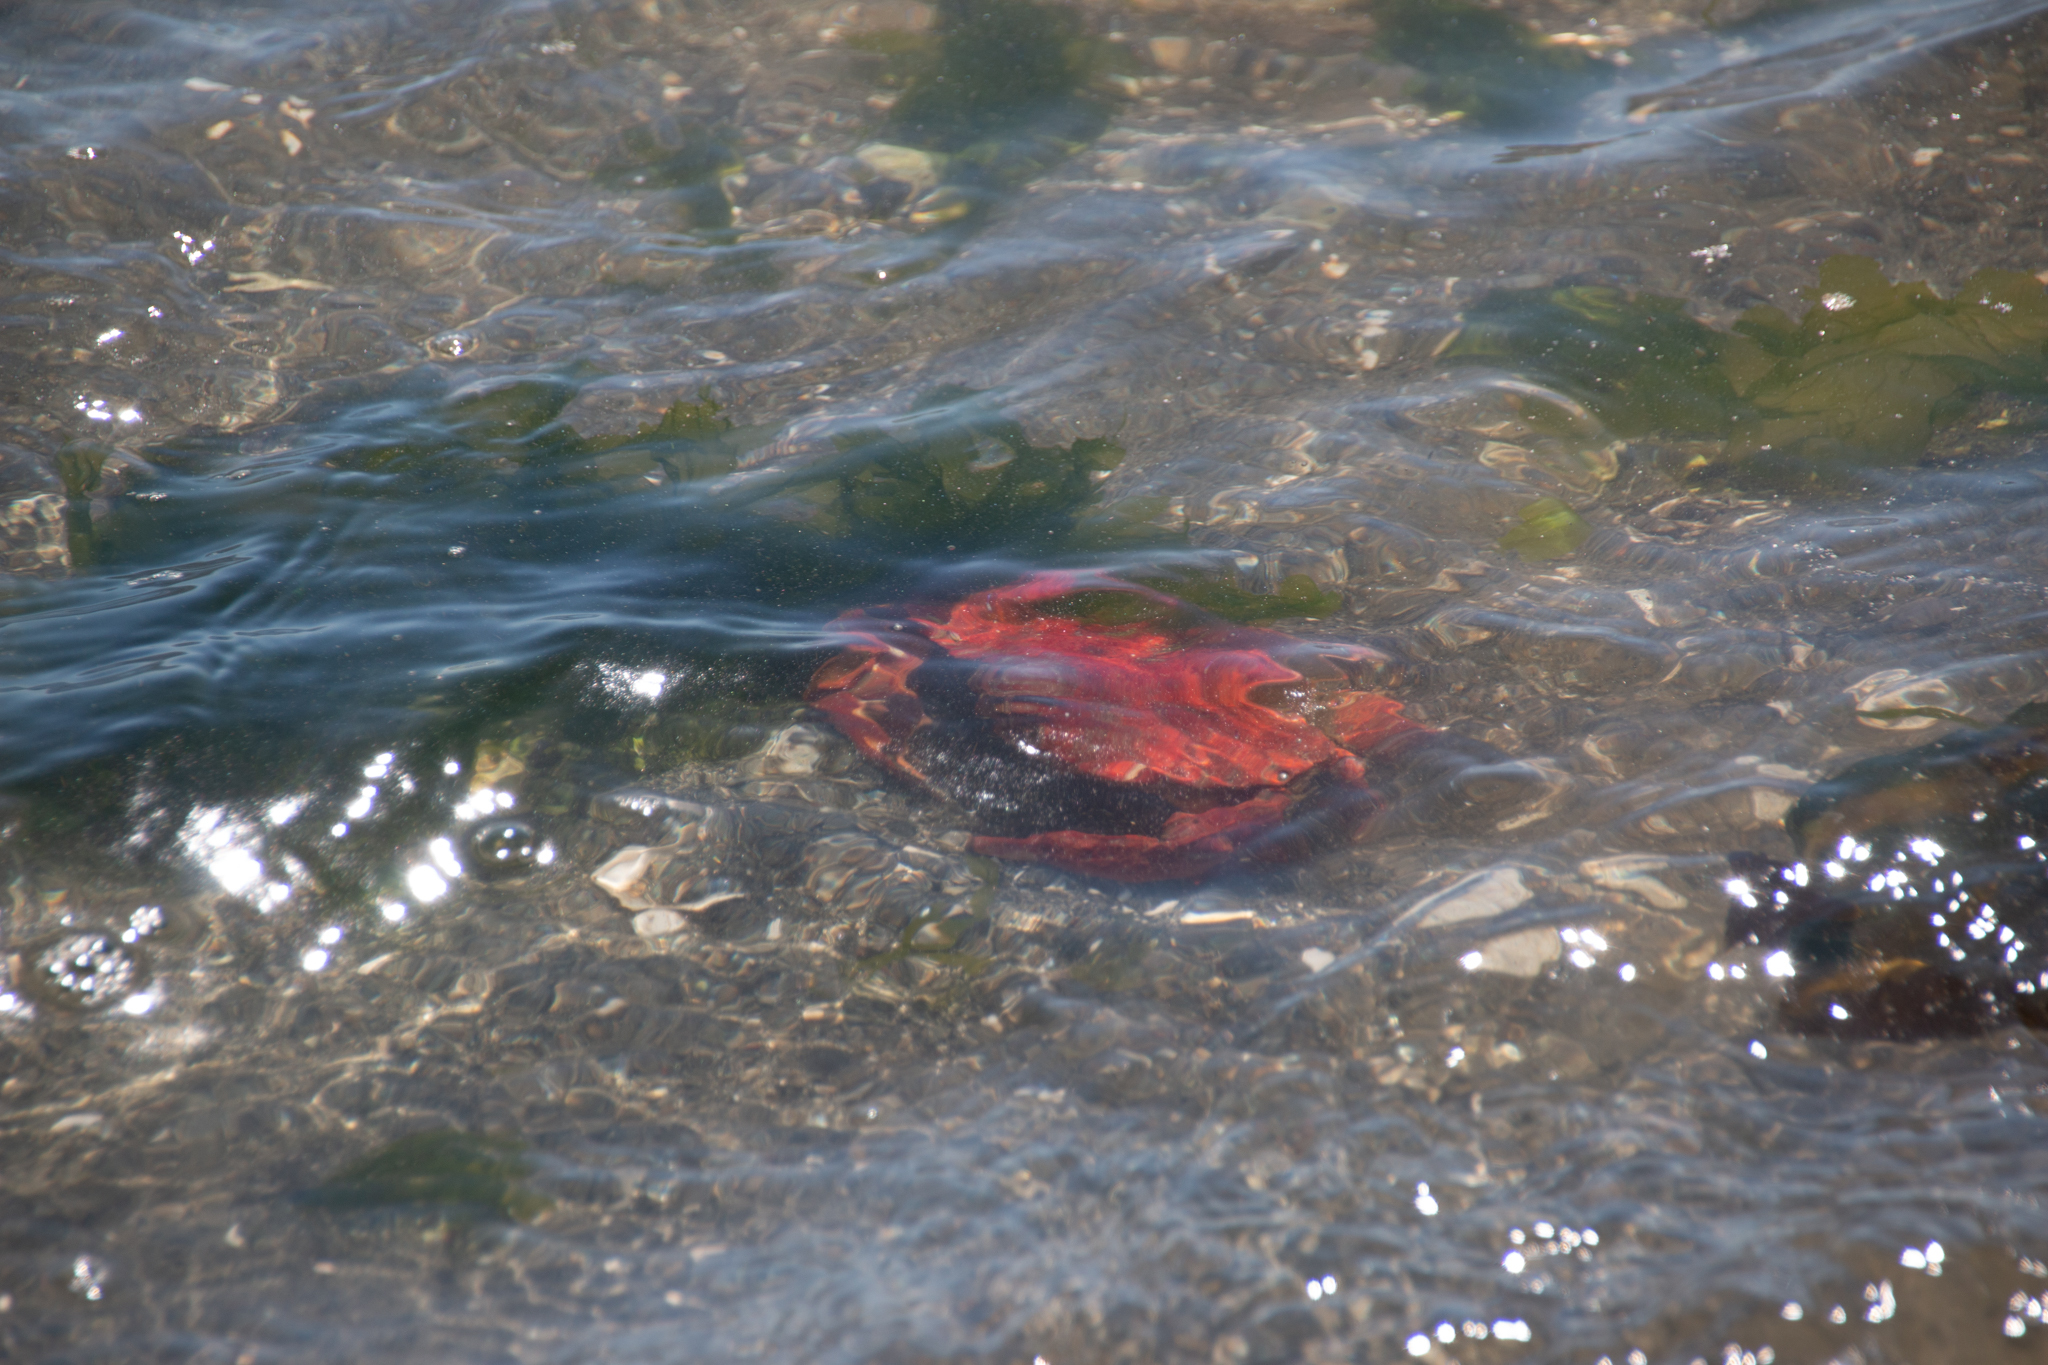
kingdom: Animalia
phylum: Arthropoda
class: Malacostraca
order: Decapoda
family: Cancridae
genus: Cancer
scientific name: Cancer productus
